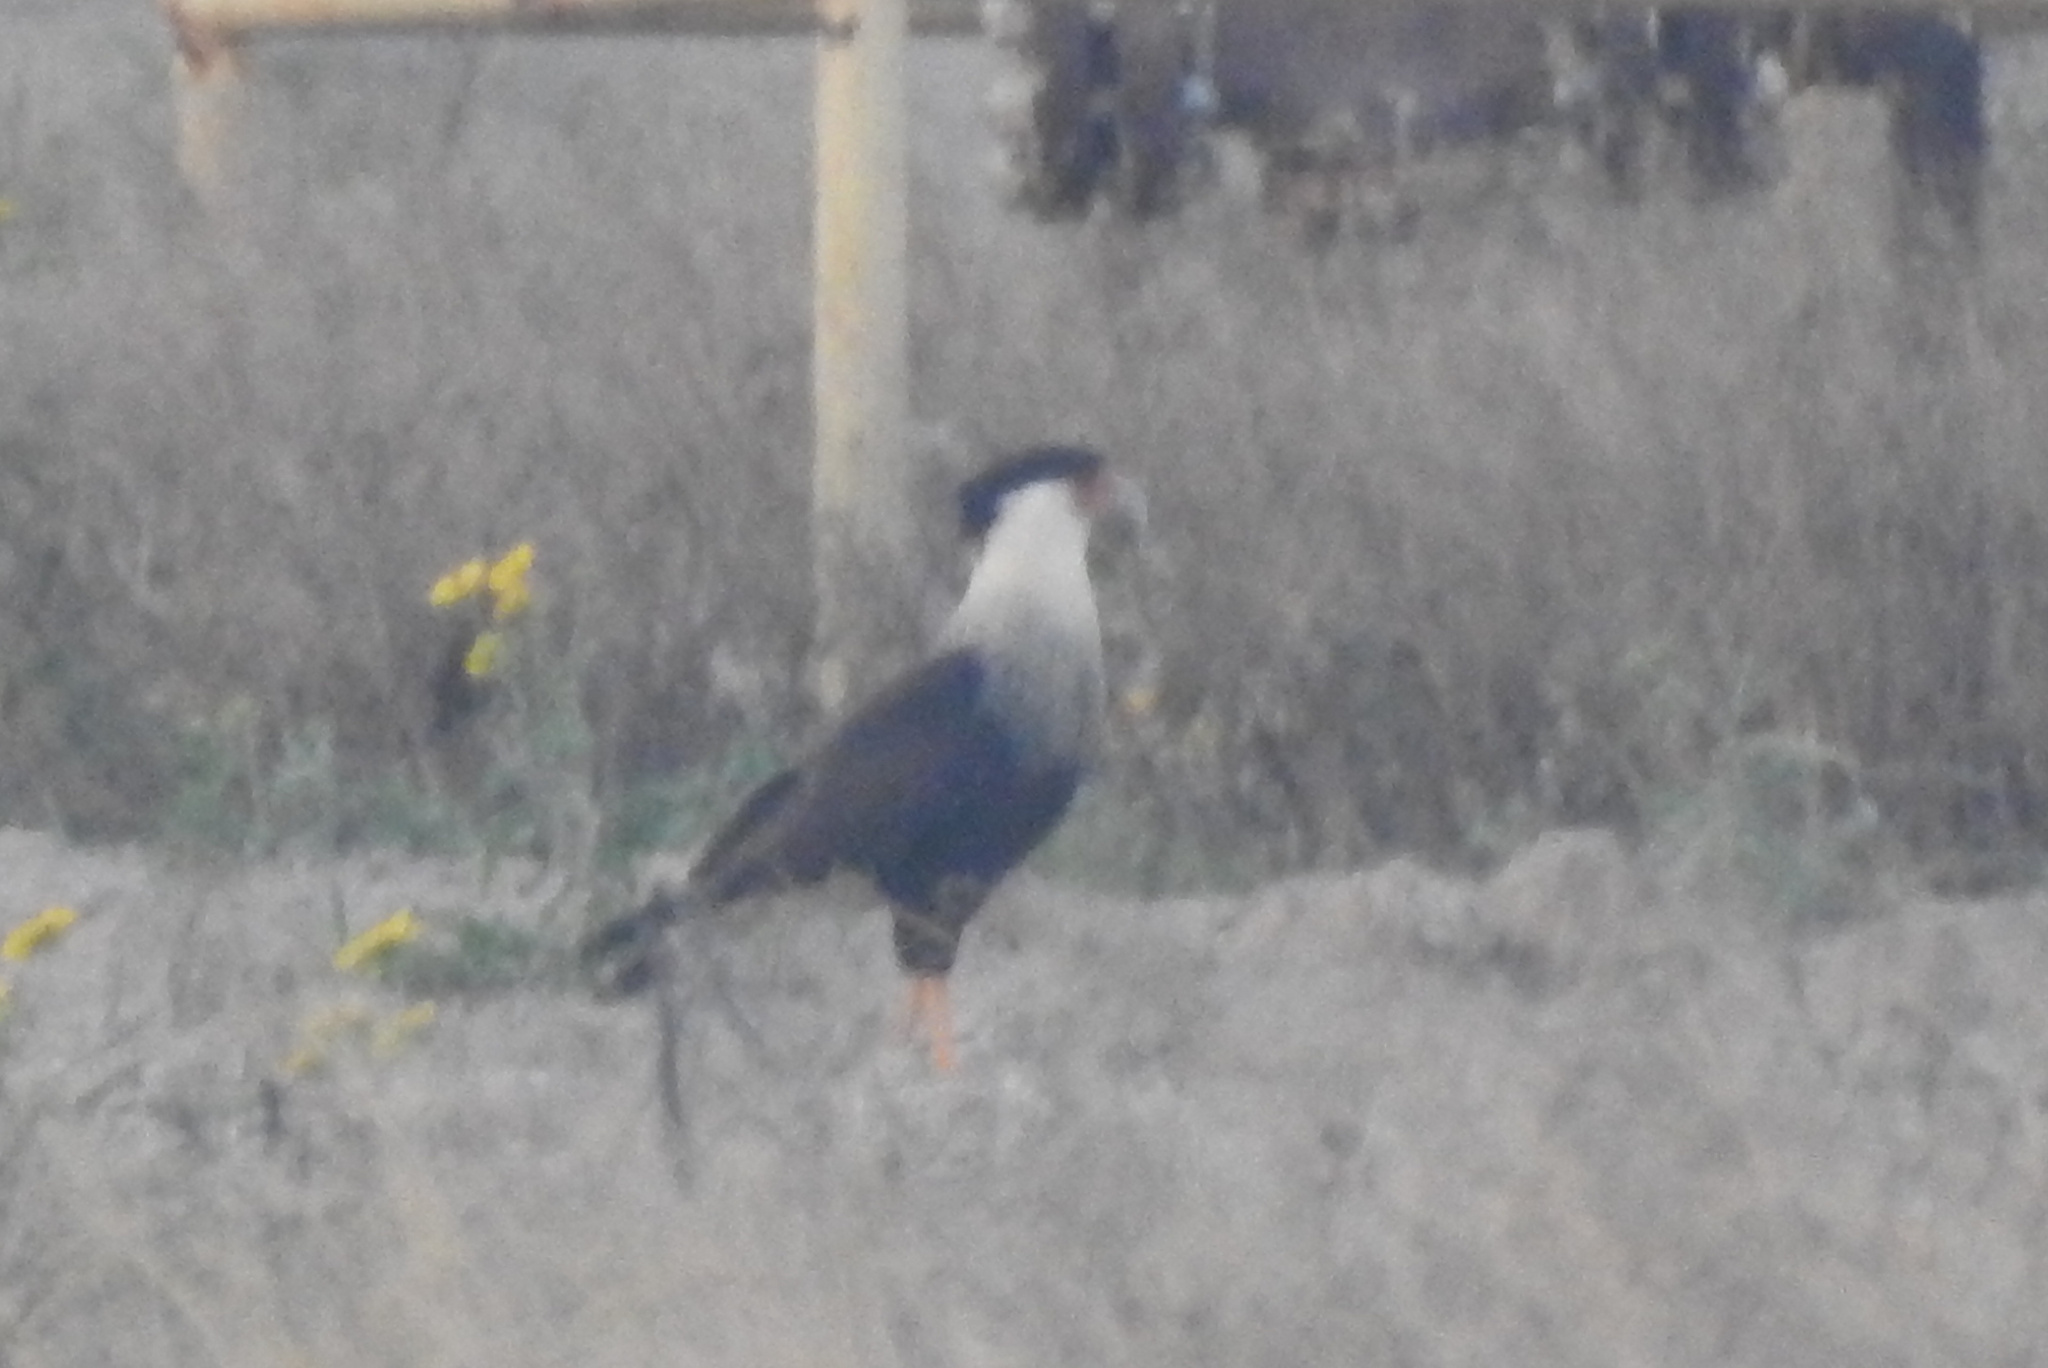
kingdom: Animalia
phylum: Chordata
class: Aves
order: Falconiformes
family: Falconidae
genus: Caracara
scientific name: Caracara plancus
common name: Southern caracara
